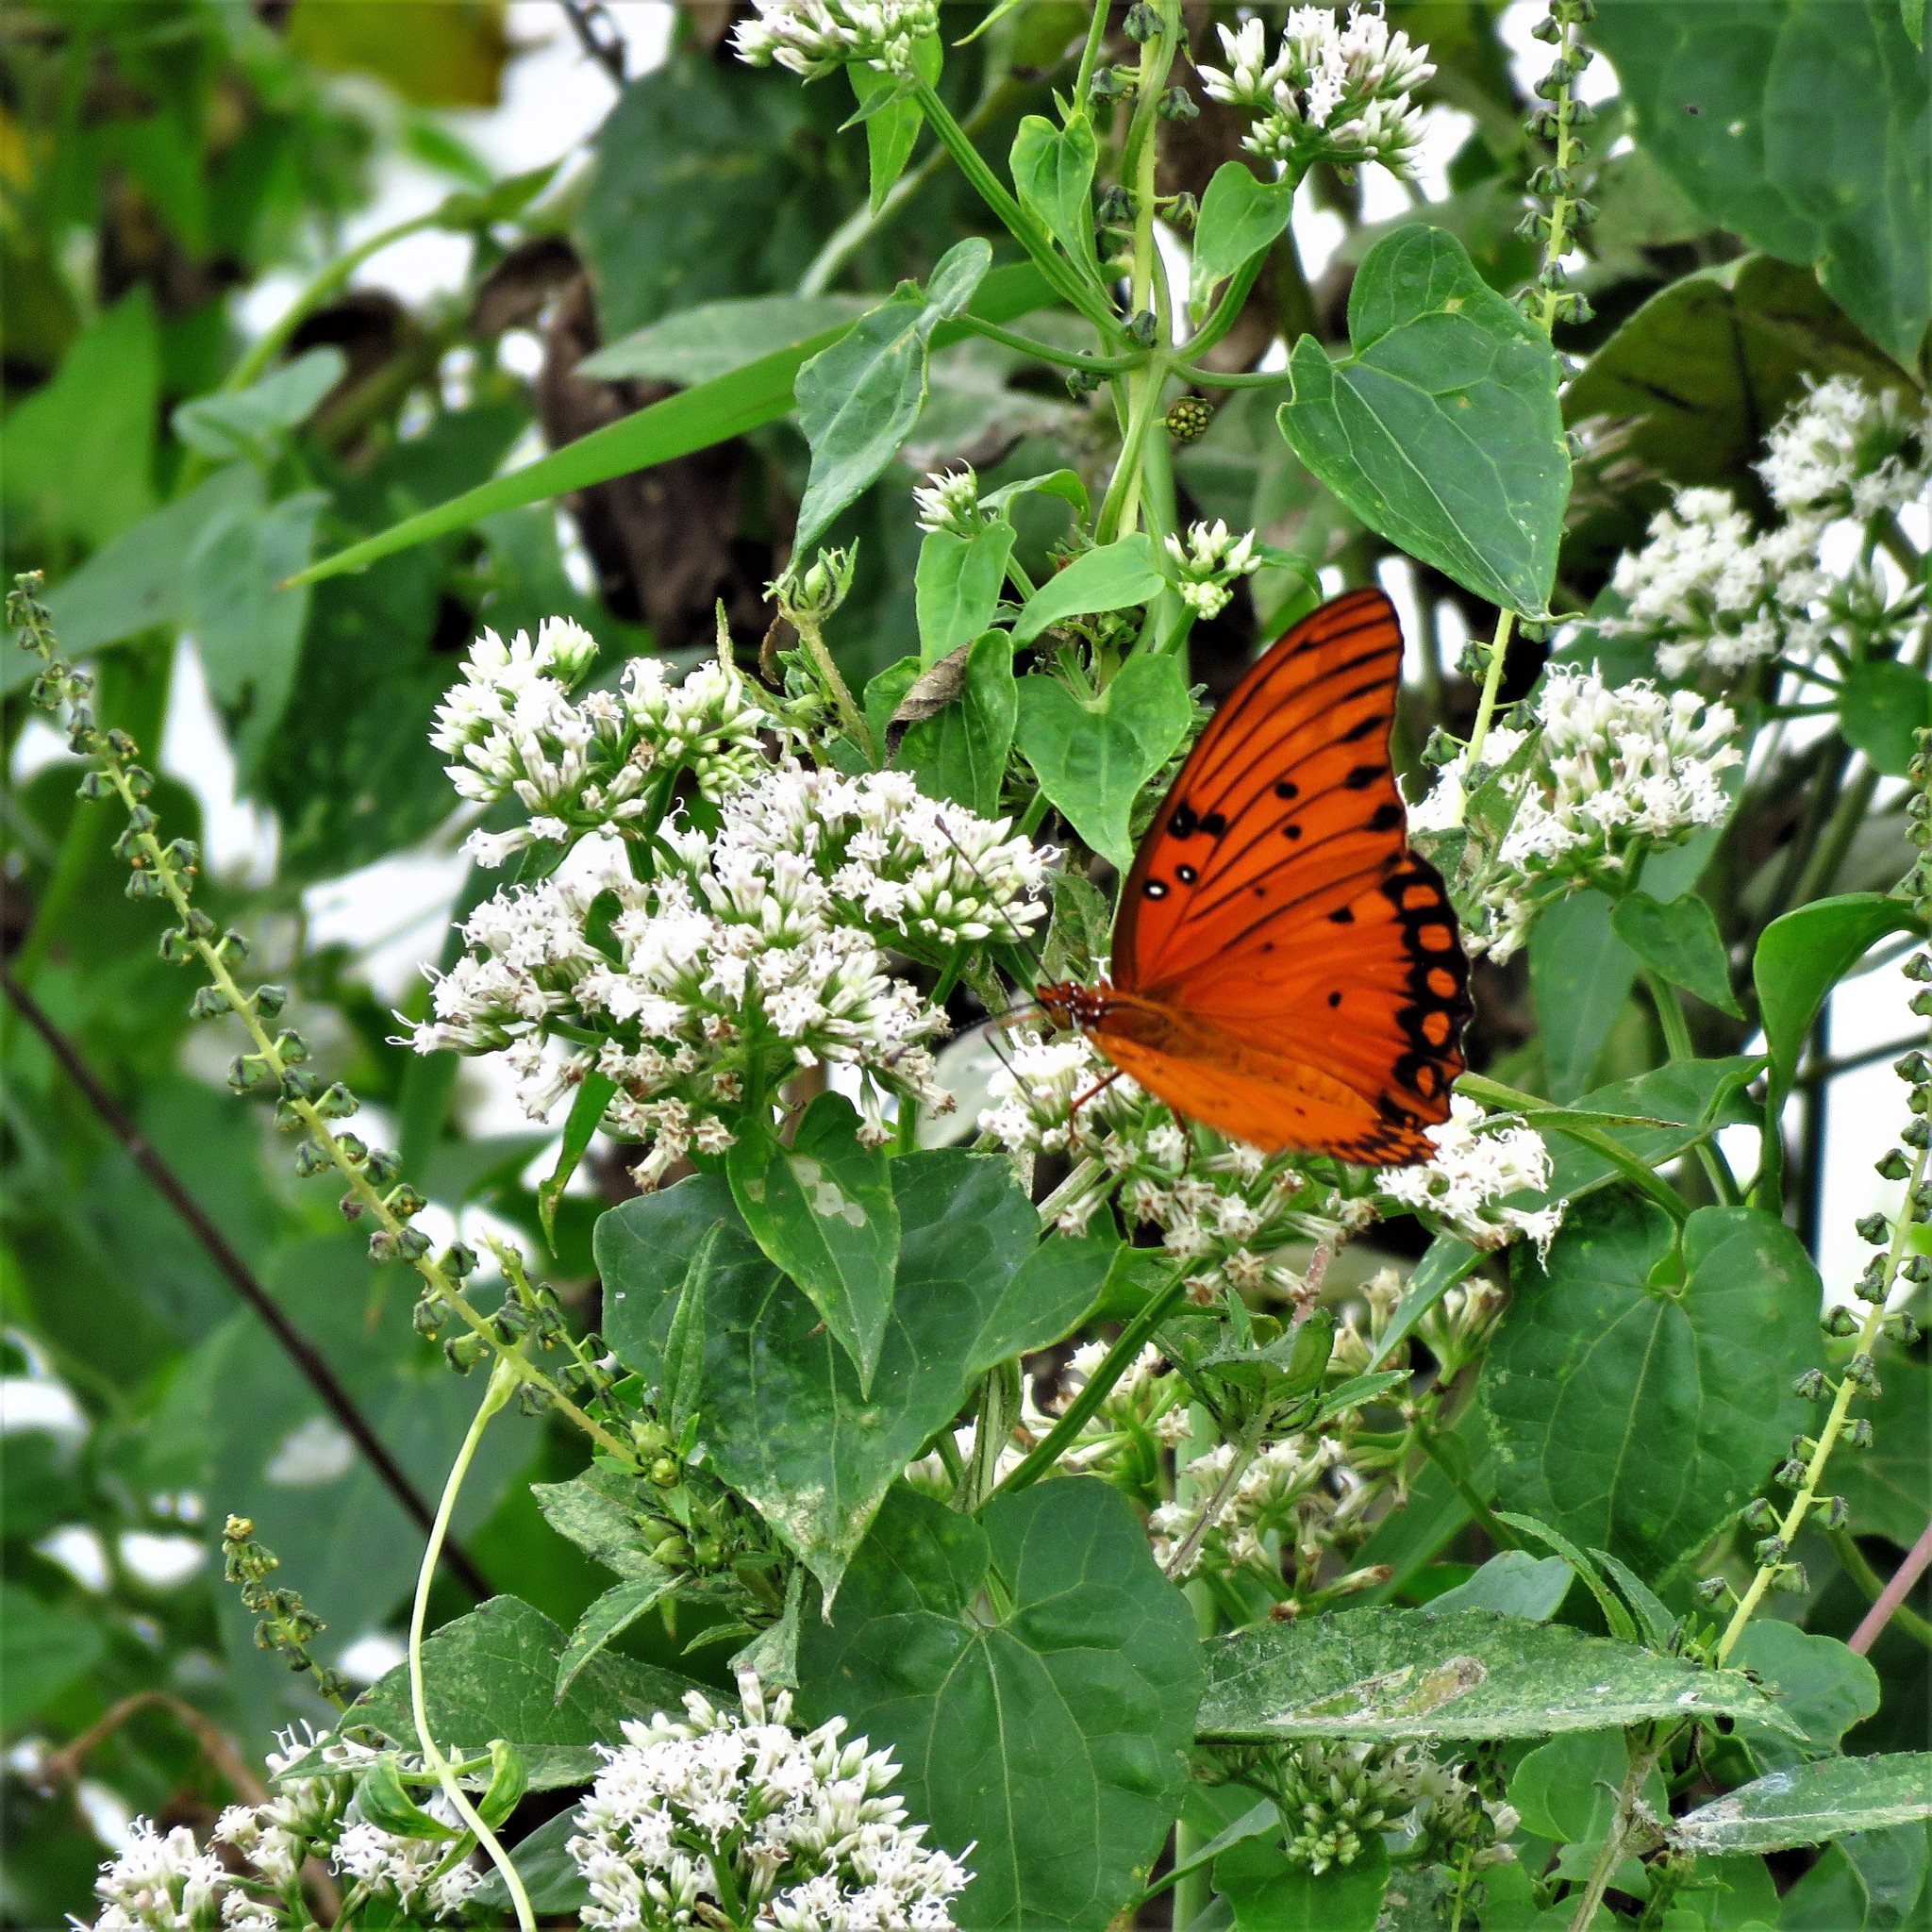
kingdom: Plantae
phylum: Tracheophyta
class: Magnoliopsida
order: Asterales
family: Asteraceae
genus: Mikania
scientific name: Mikania scandens
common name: Climbing hempvine
